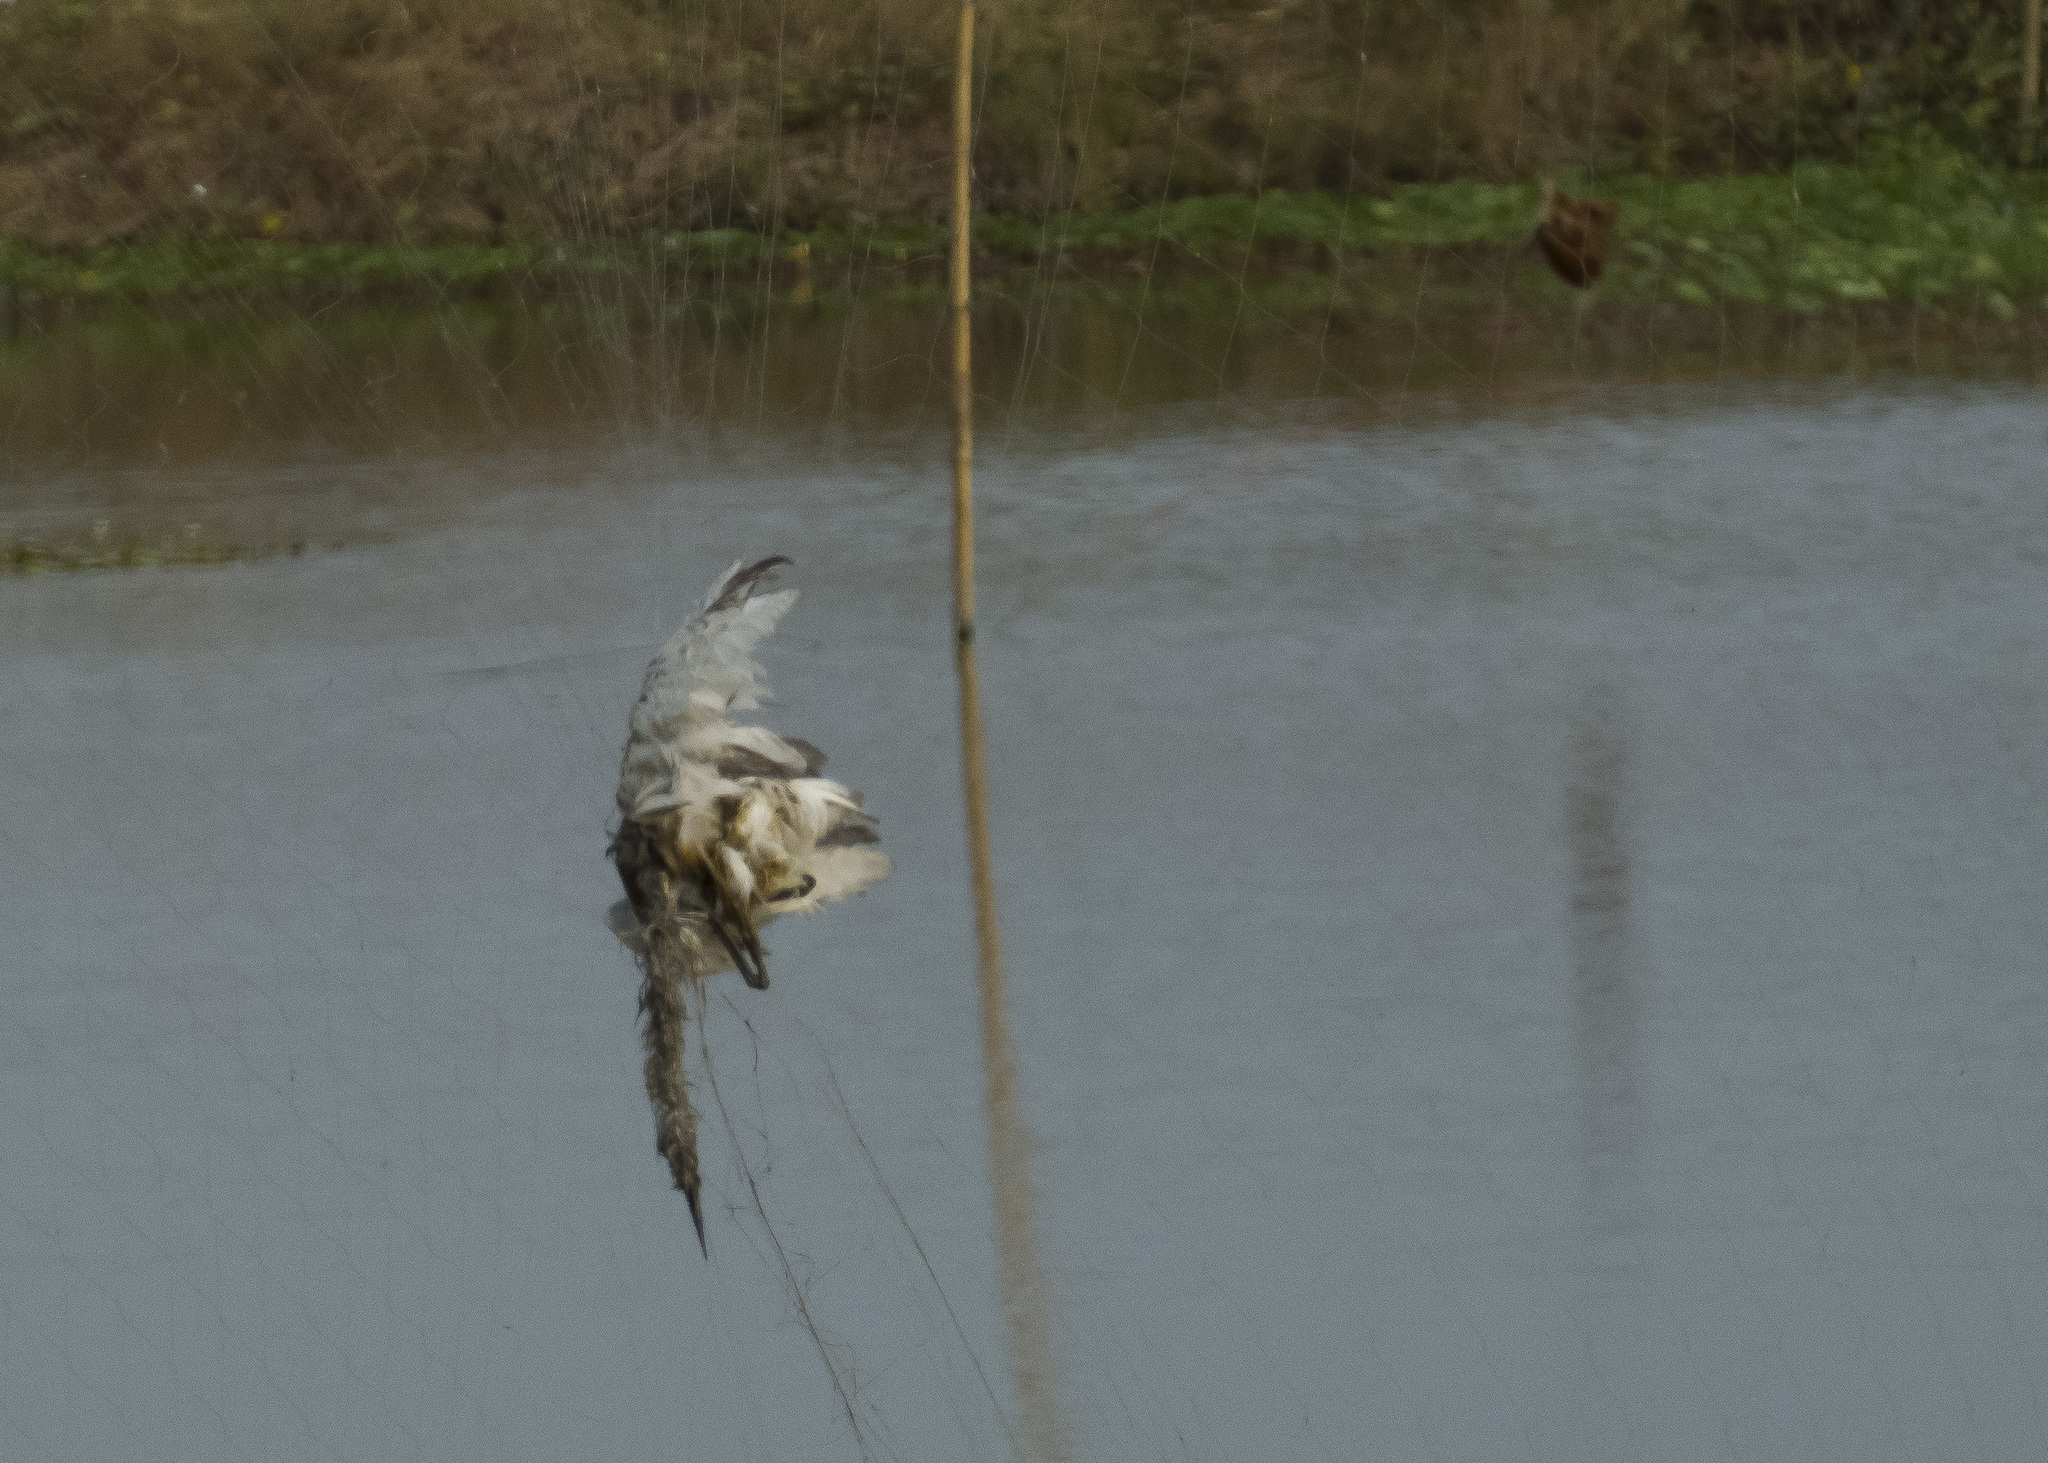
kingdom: Animalia
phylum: Chordata
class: Aves
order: Pelecaniformes
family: Ardeidae
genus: Ardeola
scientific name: Ardeola
